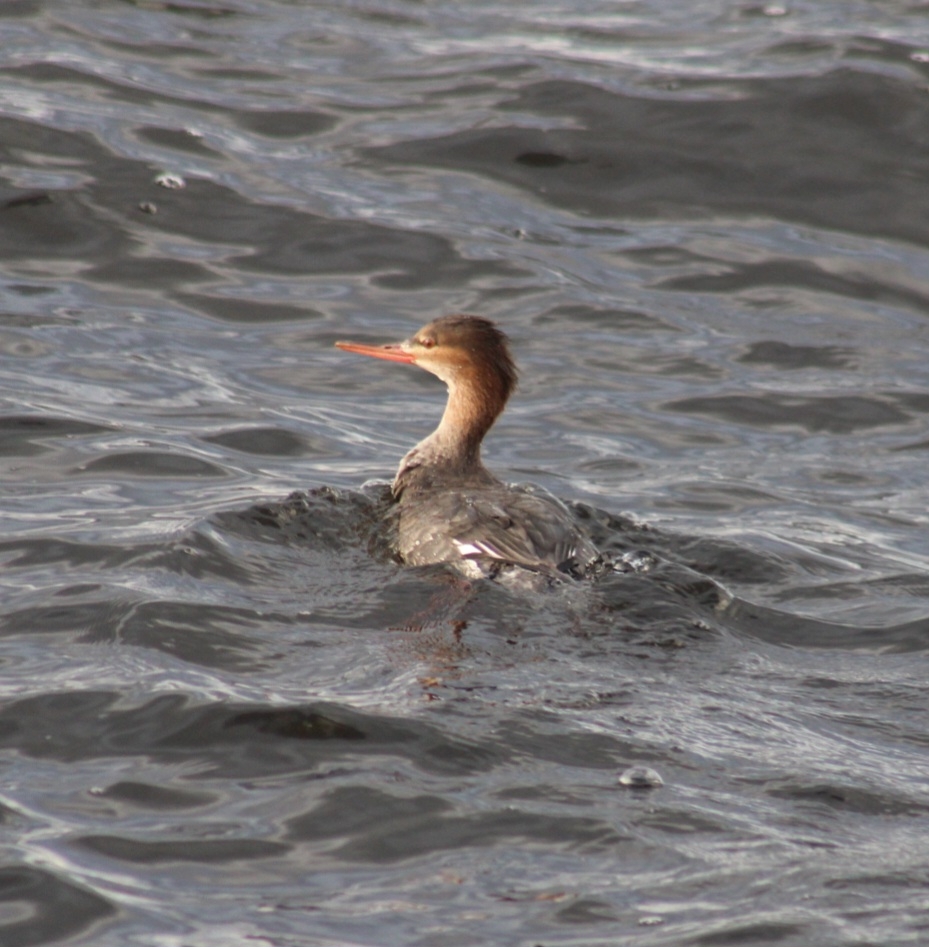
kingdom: Animalia
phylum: Chordata
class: Aves
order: Anseriformes
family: Anatidae
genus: Mergus
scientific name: Mergus serrator
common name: Red-breasted merganser
